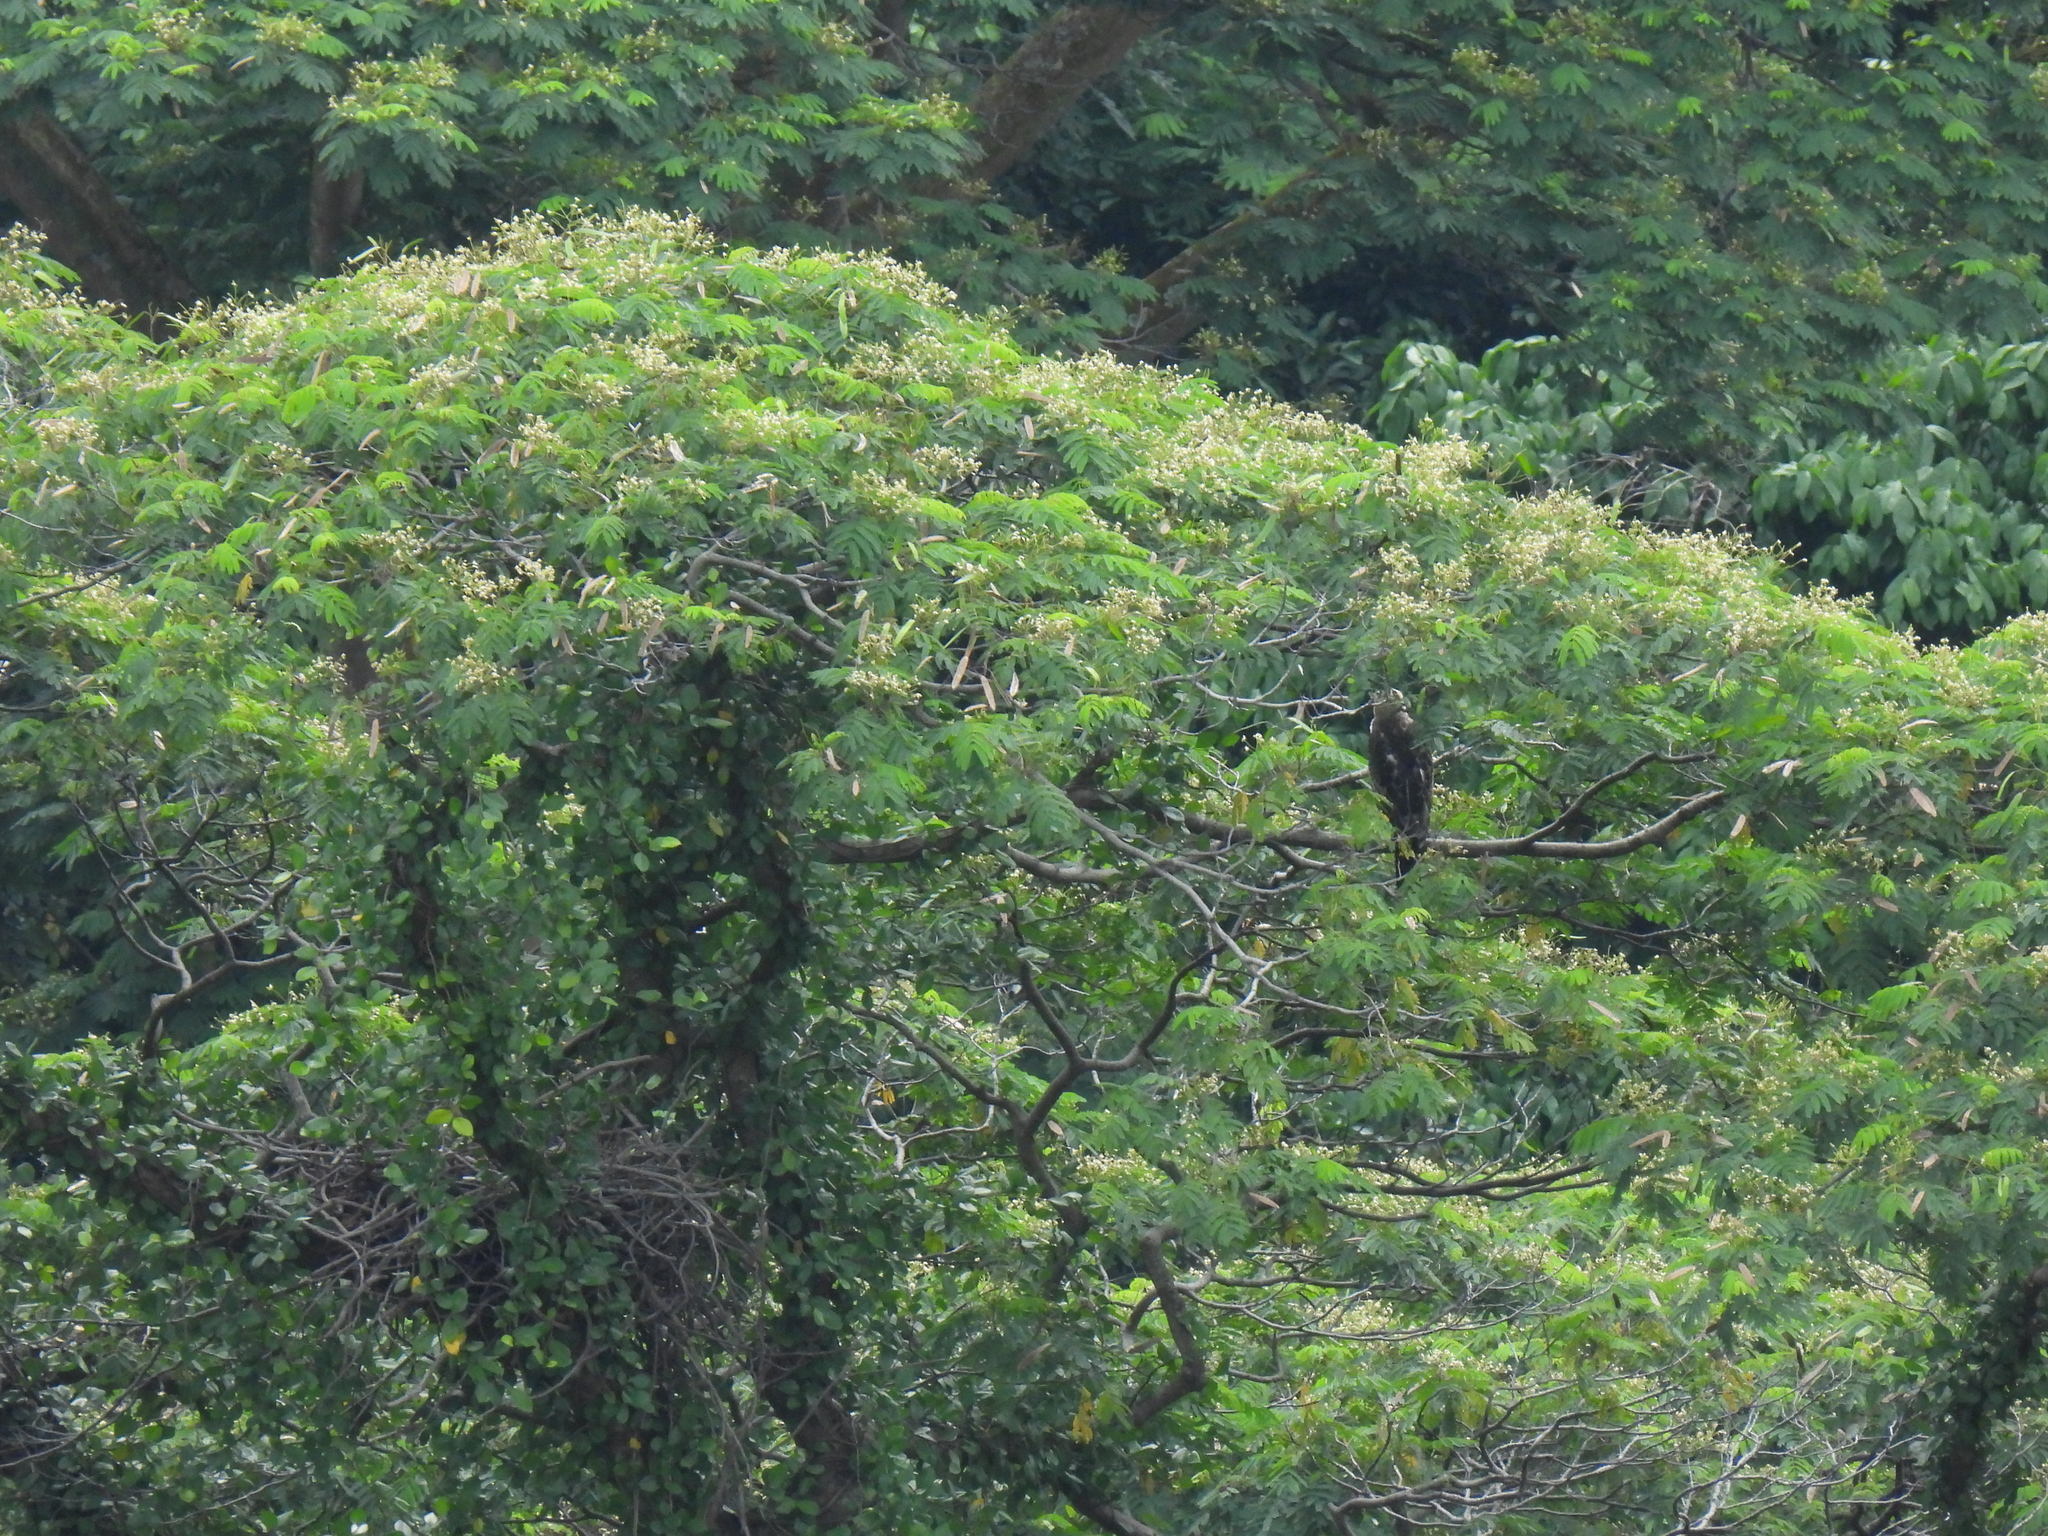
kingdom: Animalia
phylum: Chordata
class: Aves
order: Accipitriformes
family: Accipitridae
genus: Nisaetus
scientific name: Nisaetus cirrhatus
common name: Changeable hawk-eagle
